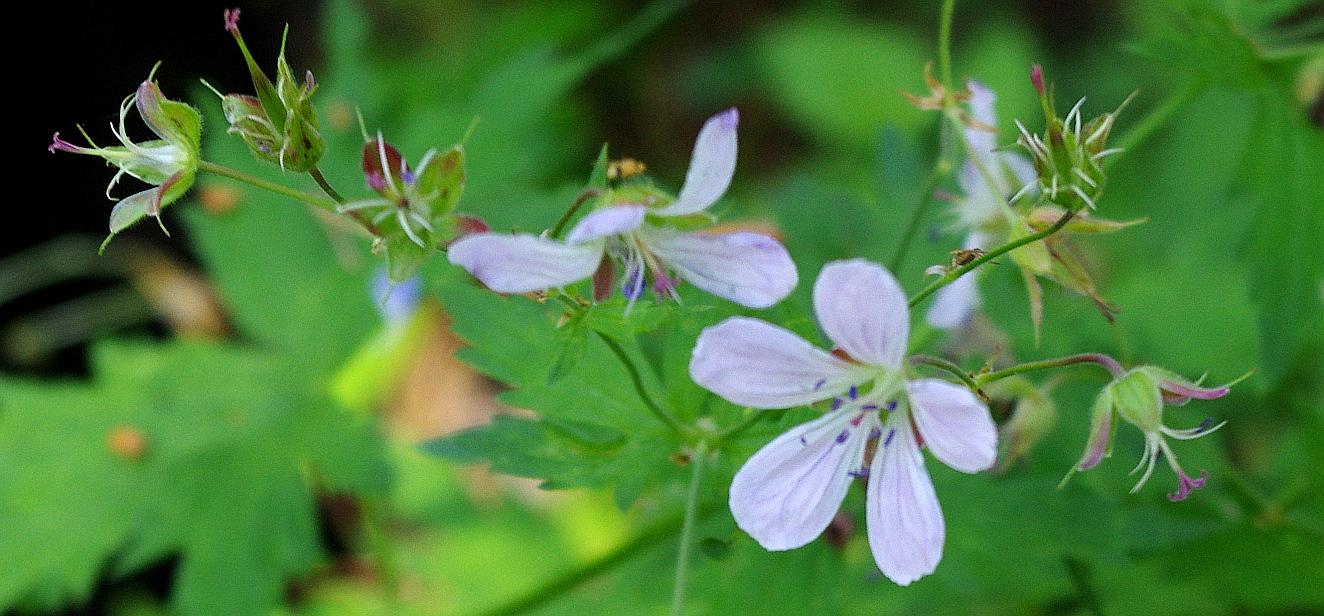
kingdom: Plantae
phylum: Tracheophyta
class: Magnoliopsida
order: Geraniales
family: Geraniaceae
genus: Geranium
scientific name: Geranium sylvaticum
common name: Wood crane's-bill
